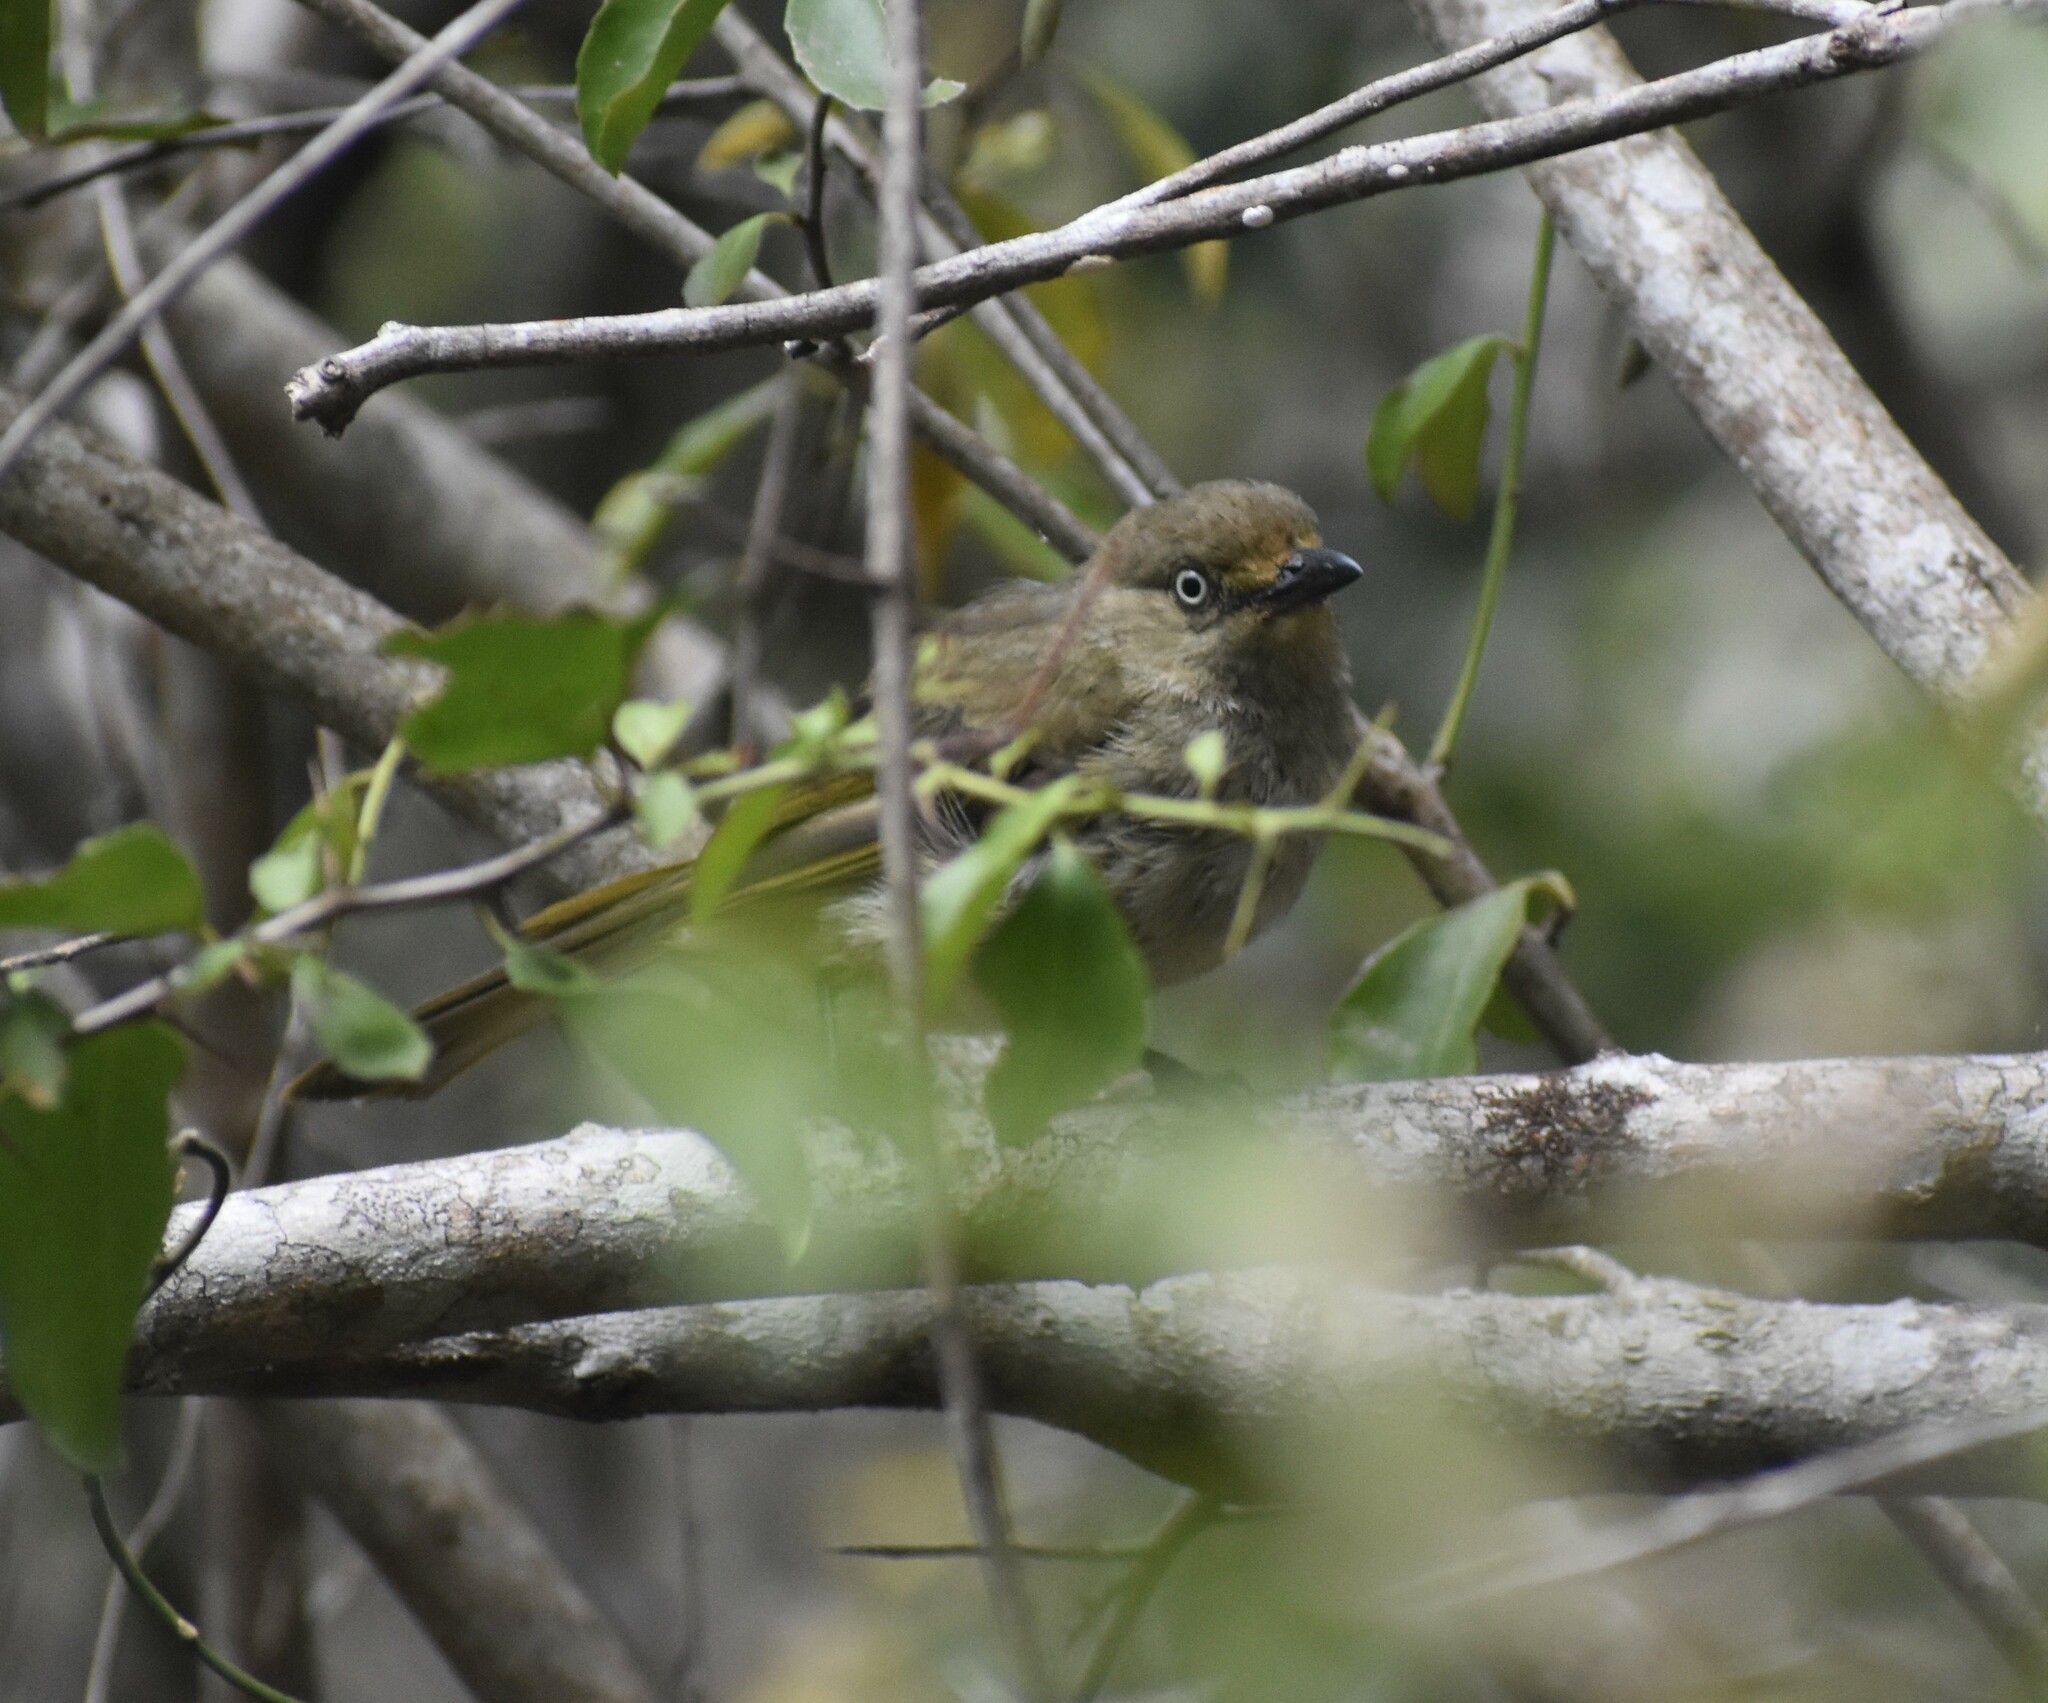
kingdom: Animalia
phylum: Chordata
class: Aves
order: Passeriformes
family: Pycnonotidae
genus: Andropadus
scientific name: Andropadus importunus
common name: Sombre greenbul
